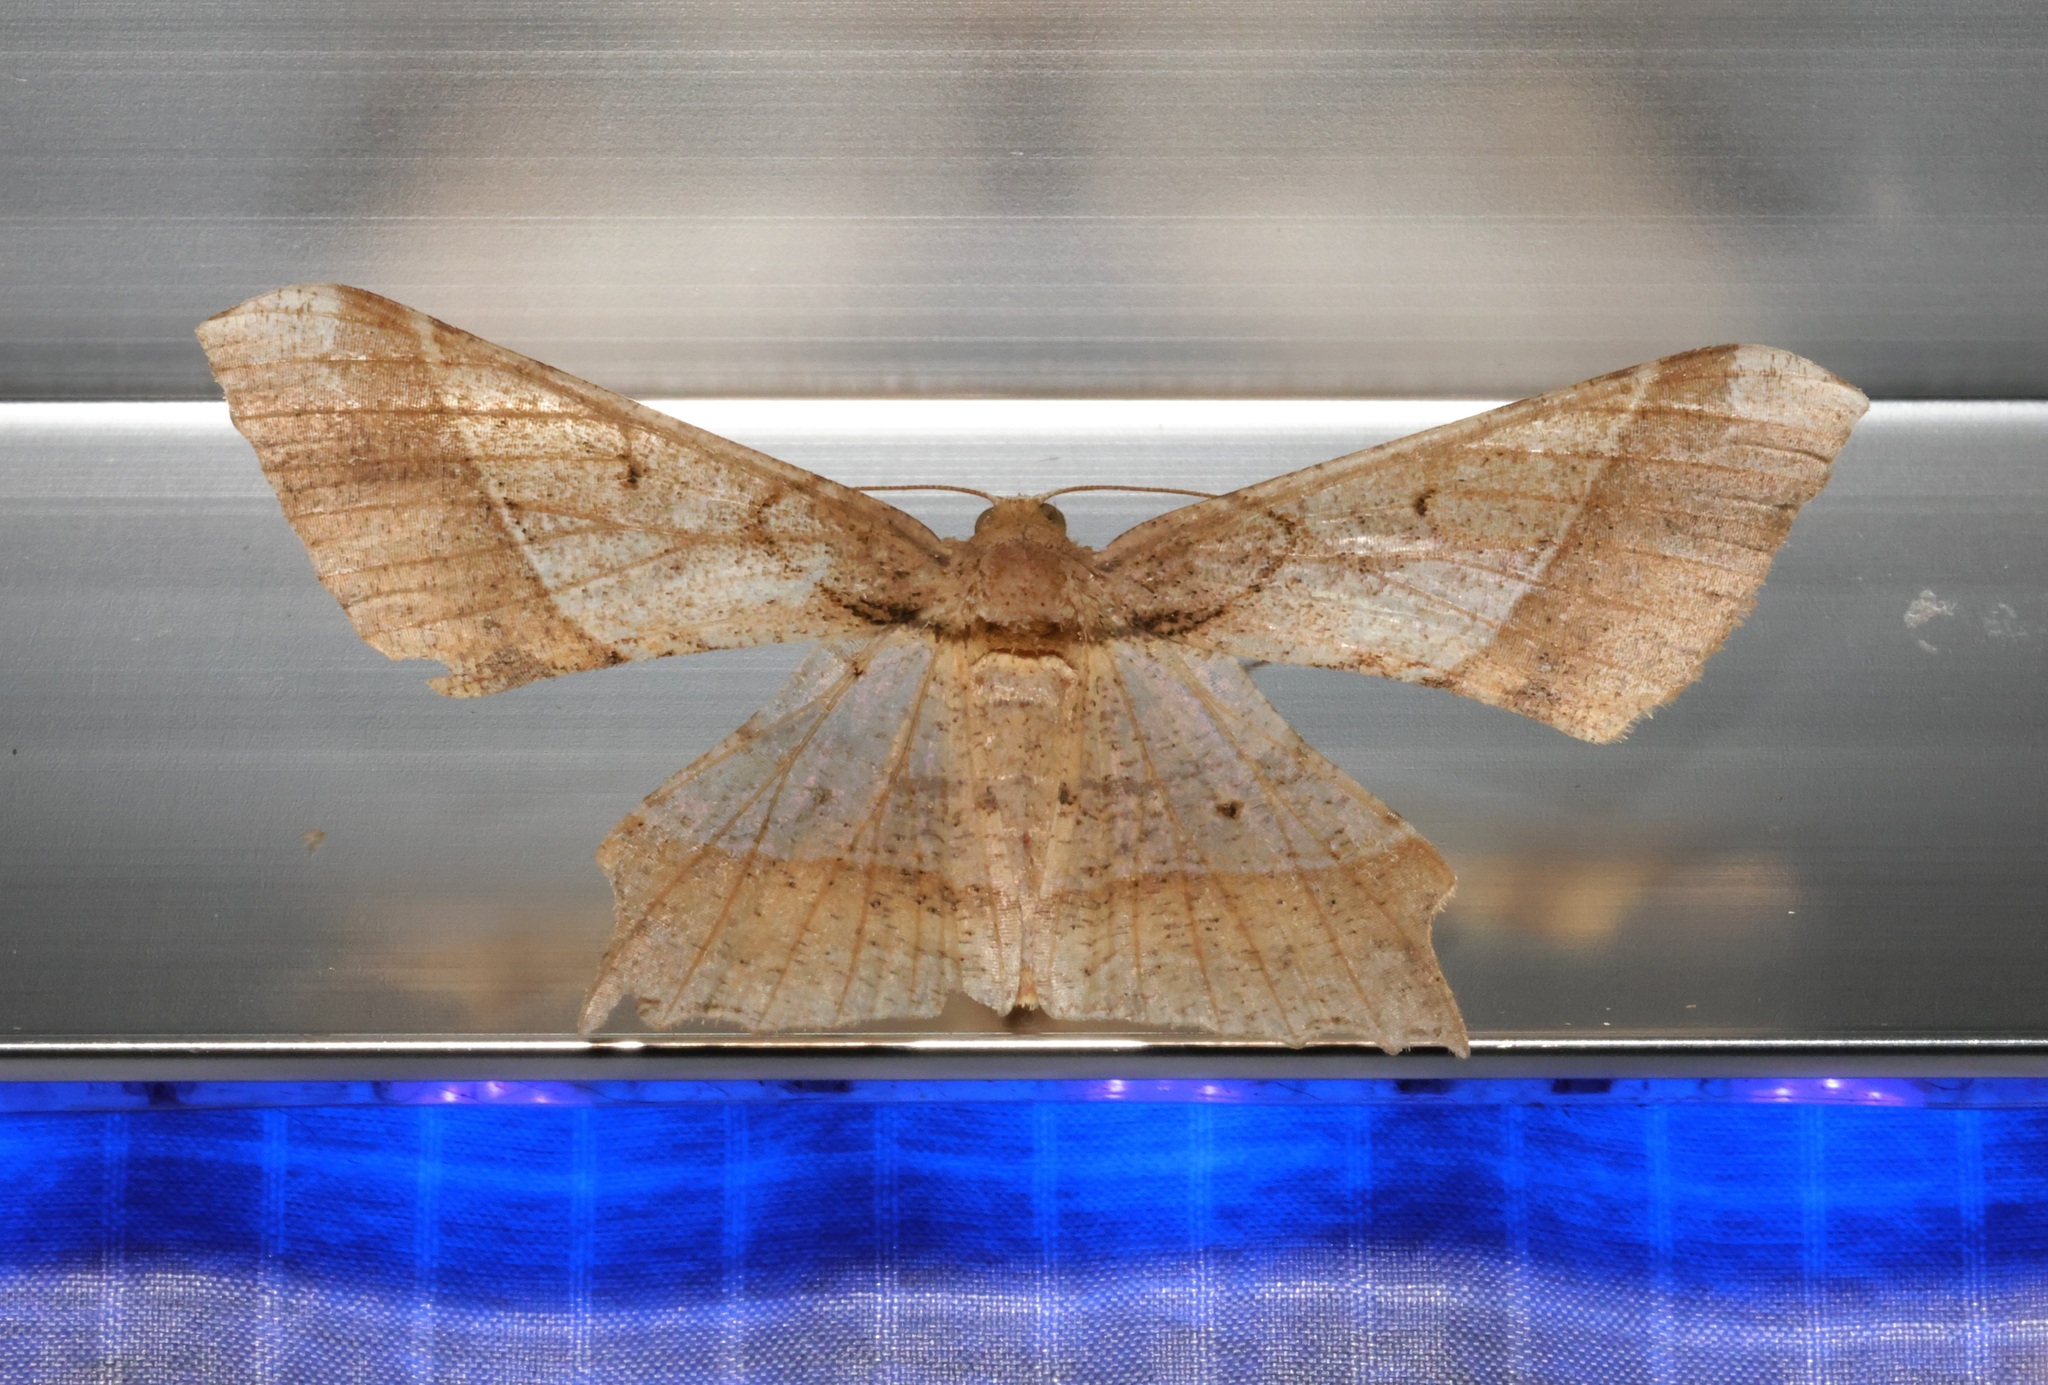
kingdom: Animalia
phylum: Arthropoda
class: Insecta
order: Lepidoptera
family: Geometridae
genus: Krananda
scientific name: Krananda latimarginaria
